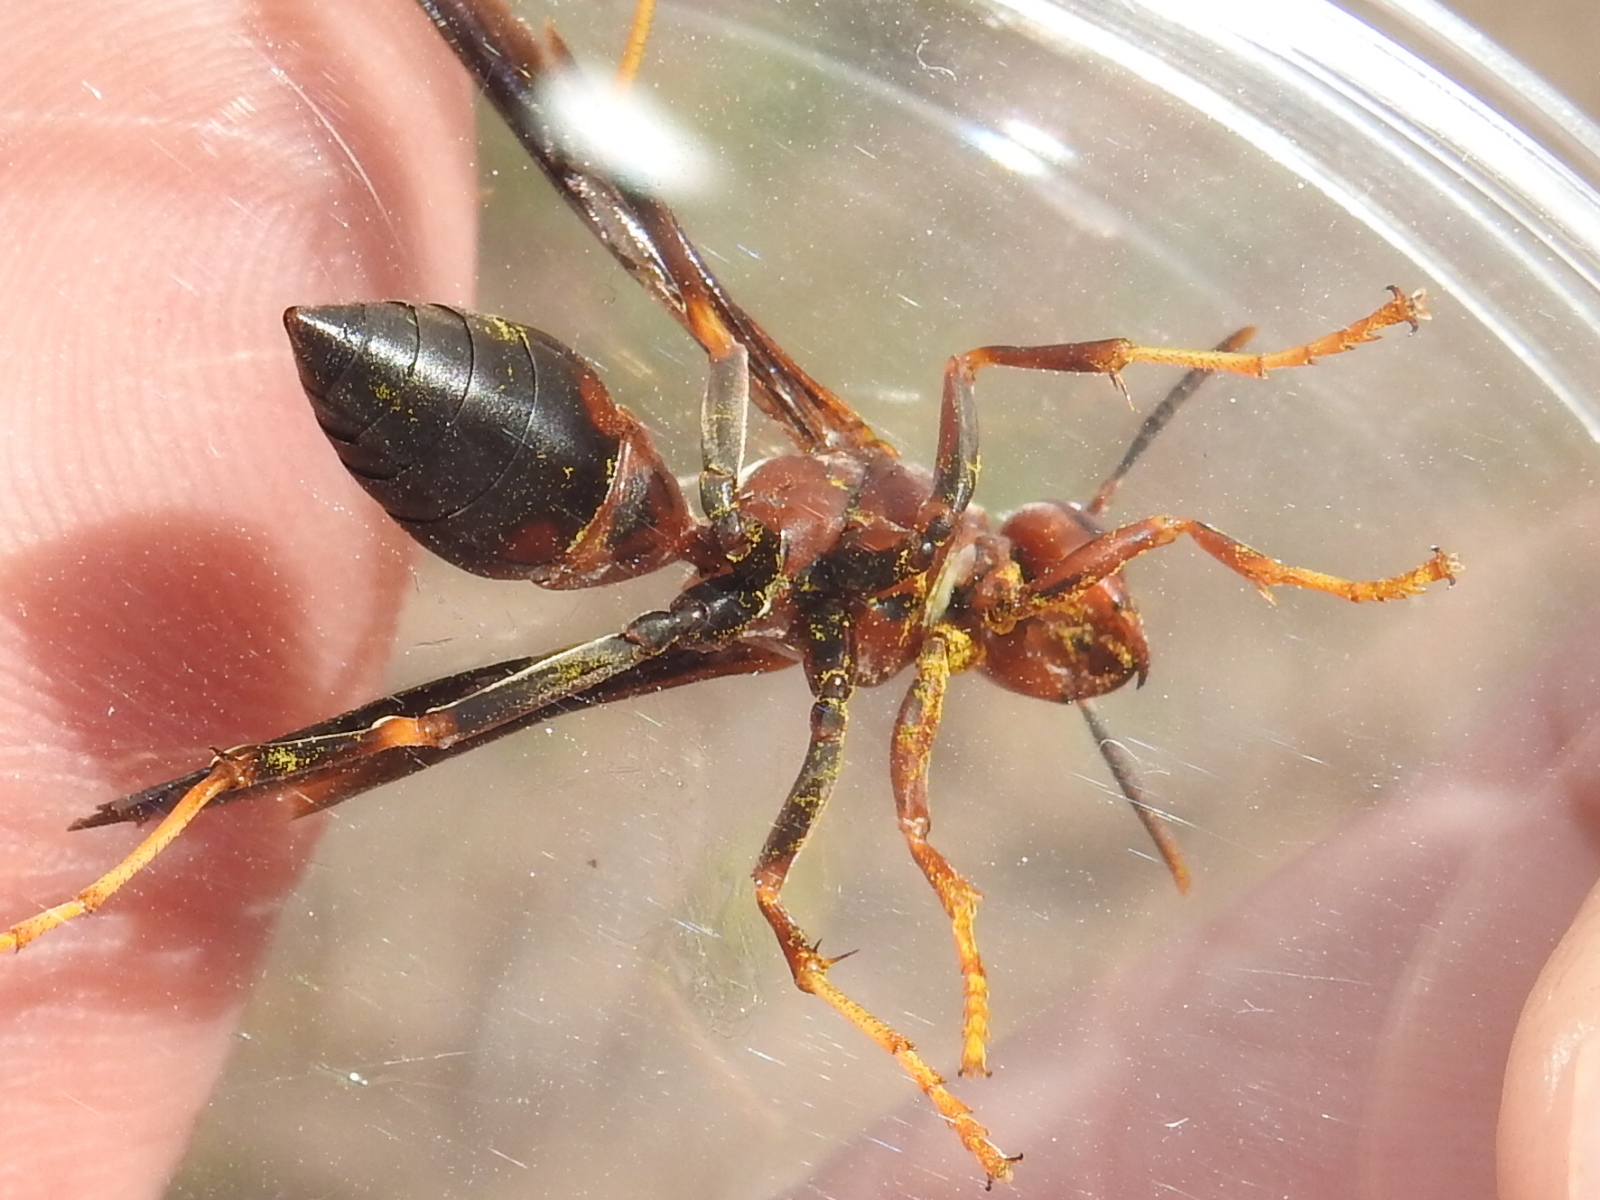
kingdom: Animalia
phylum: Arthropoda
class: Insecta
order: Hymenoptera
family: Eumenidae
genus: Polistes
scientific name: Polistes metricus
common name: Metric paper wasp
